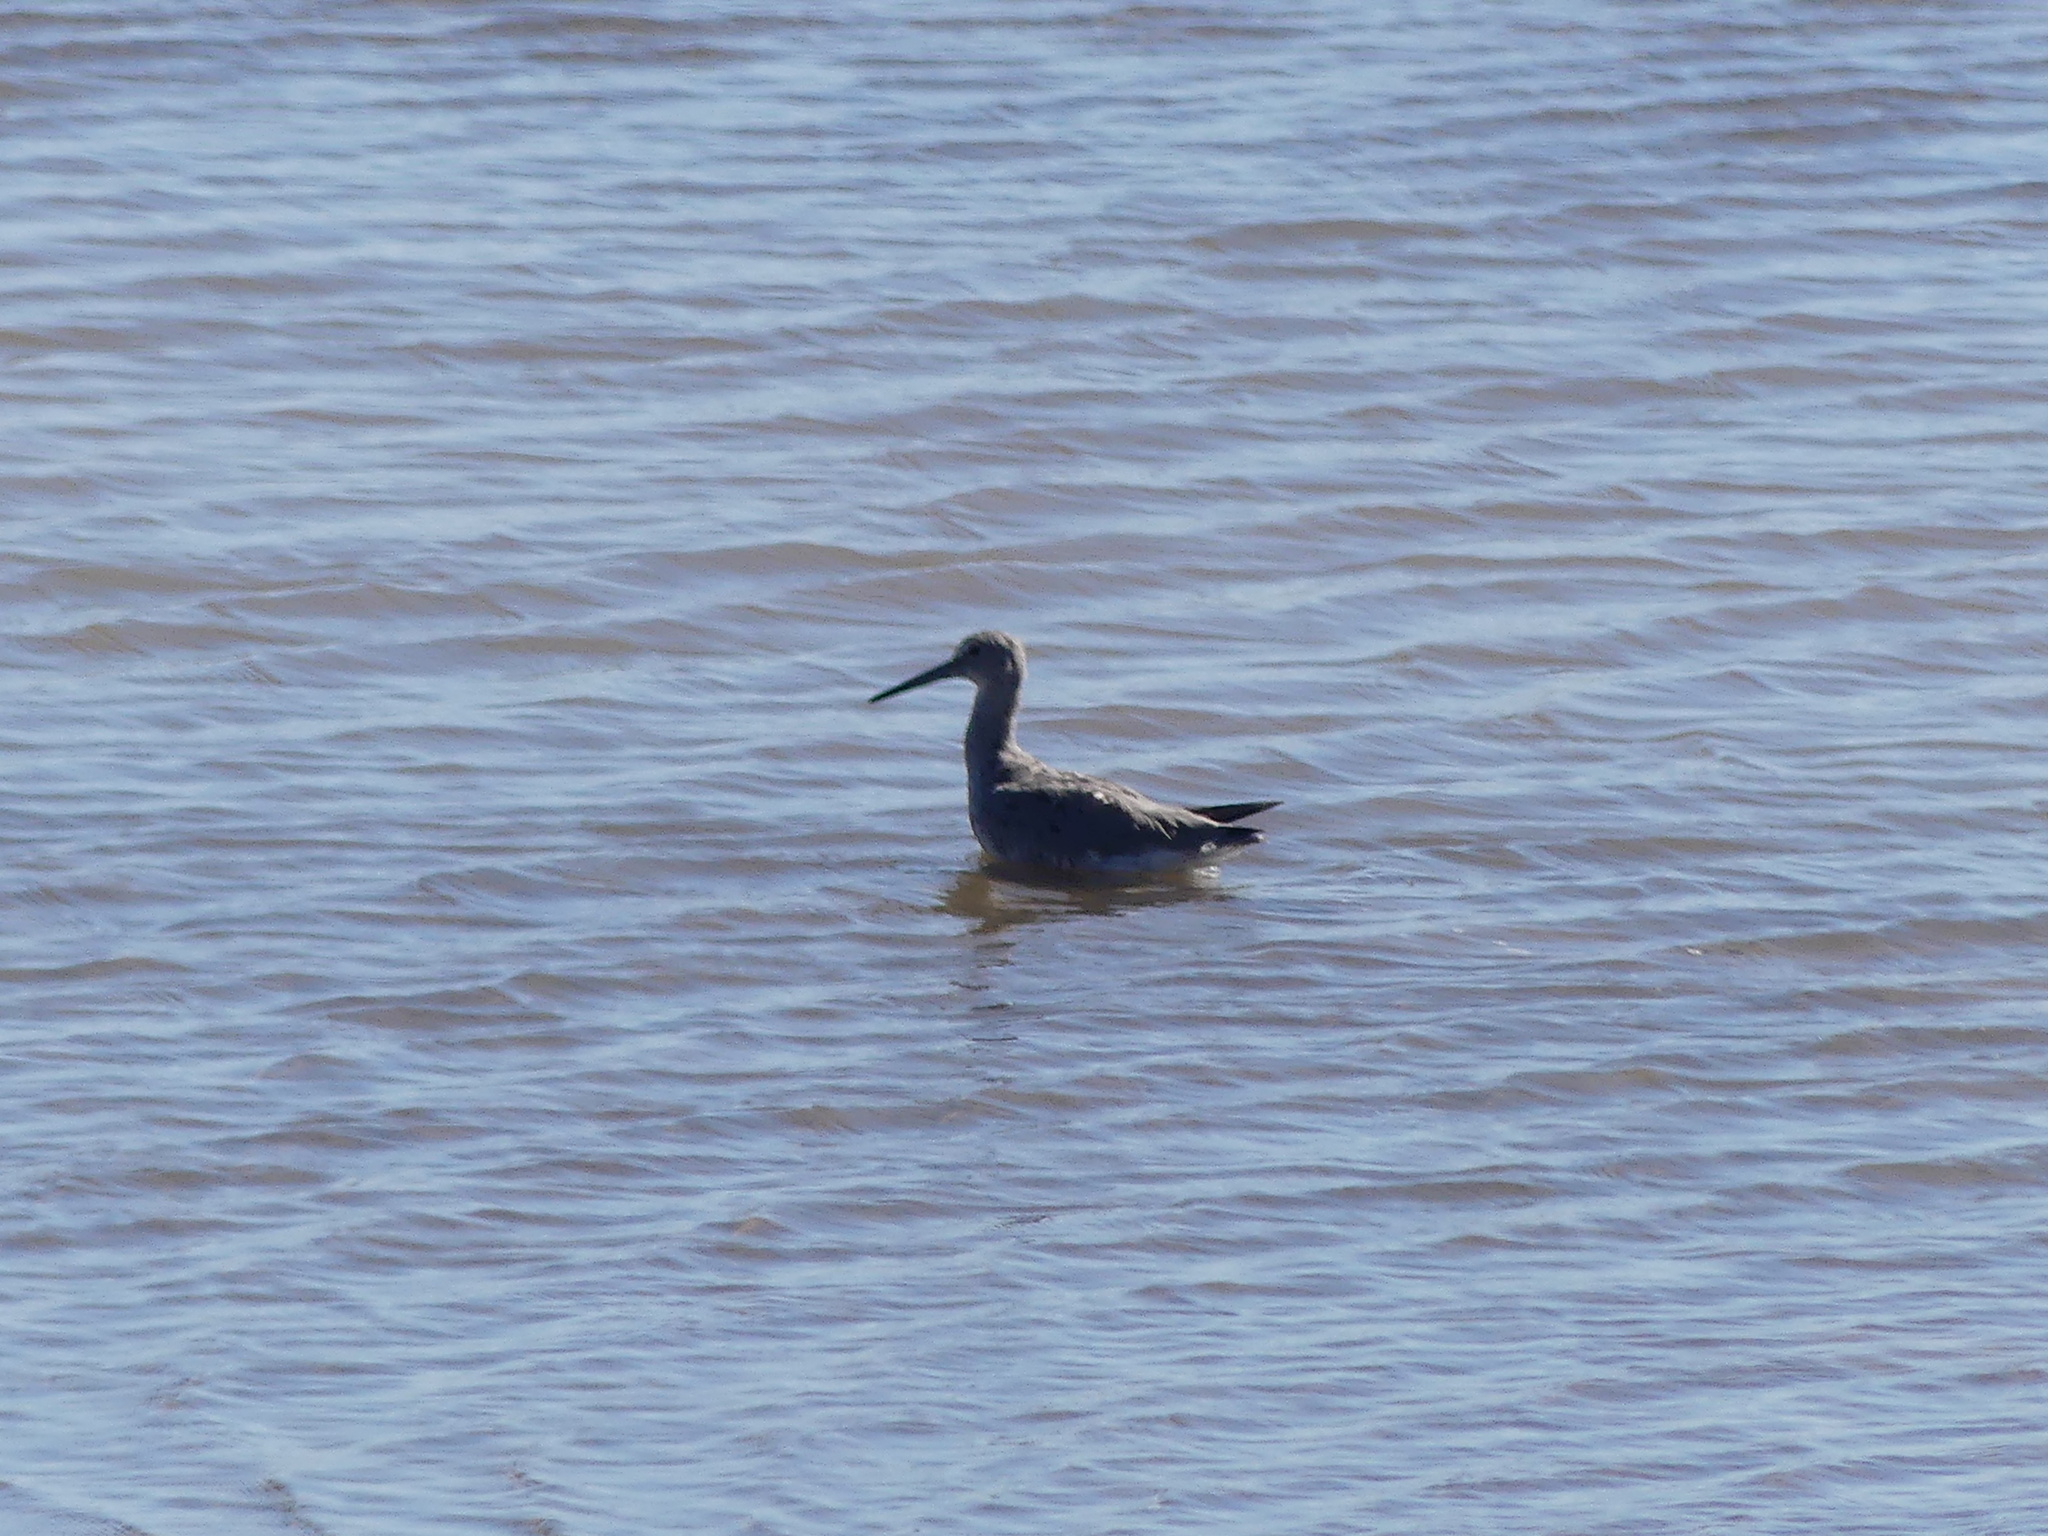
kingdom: Animalia
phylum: Chordata
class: Aves
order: Charadriiformes
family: Scolopacidae
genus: Tringa
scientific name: Tringa semipalmata
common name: Willet
